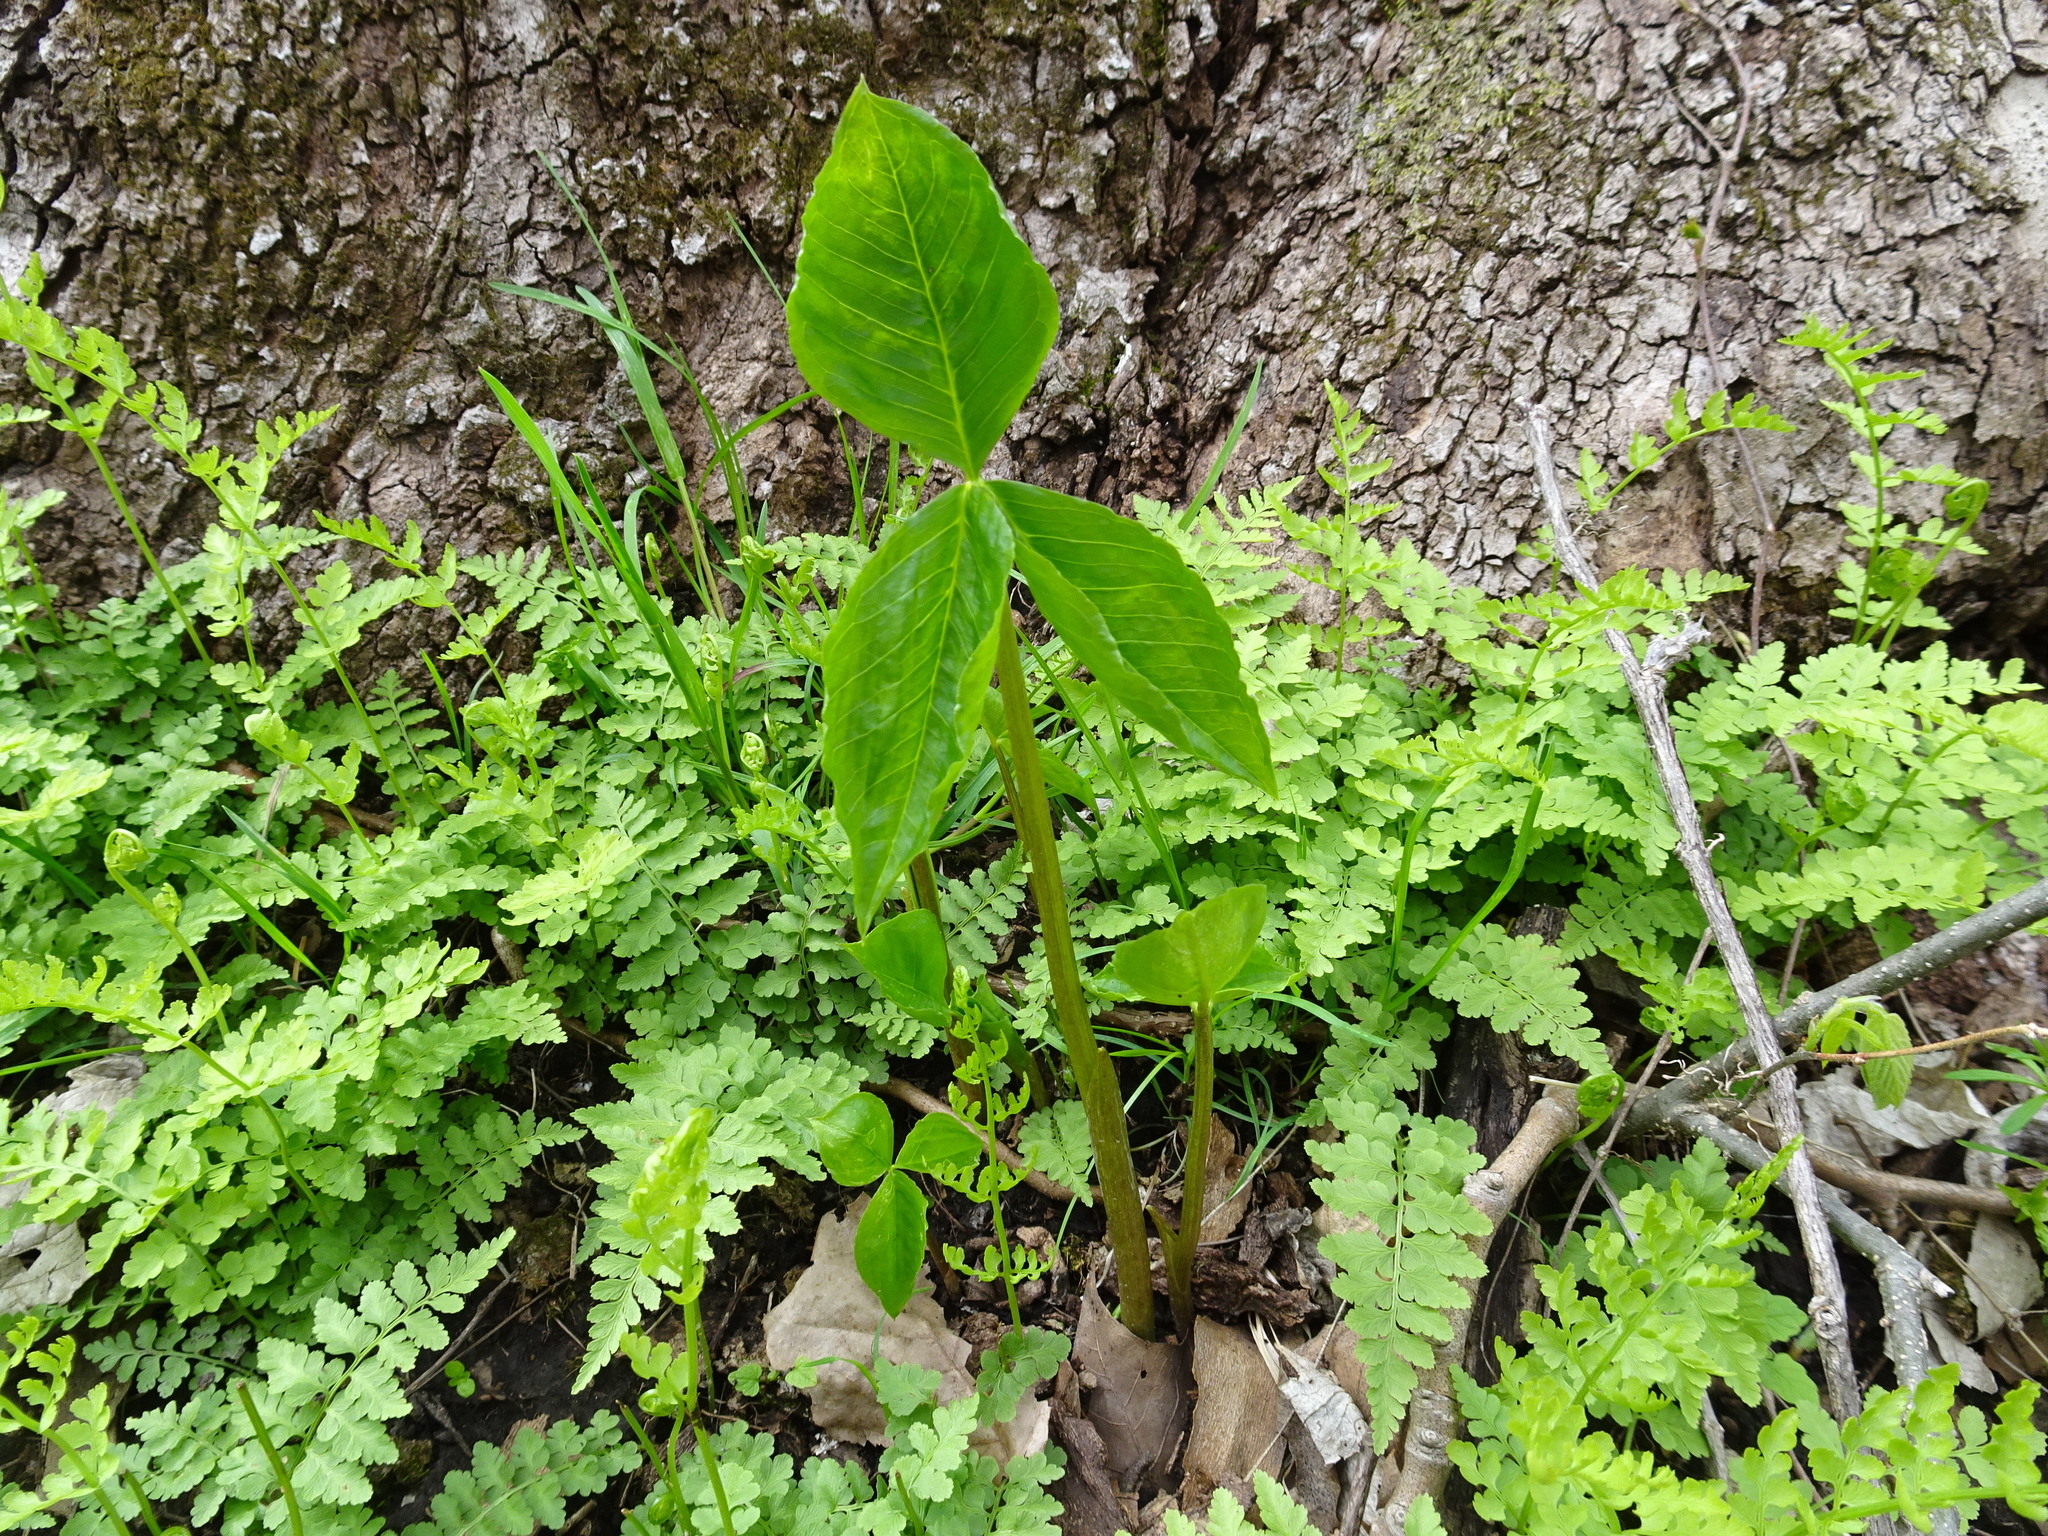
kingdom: Plantae
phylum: Tracheophyta
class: Liliopsida
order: Alismatales
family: Araceae
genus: Arisaema
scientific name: Arisaema triphyllum
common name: Jack-in-the-pulpit
